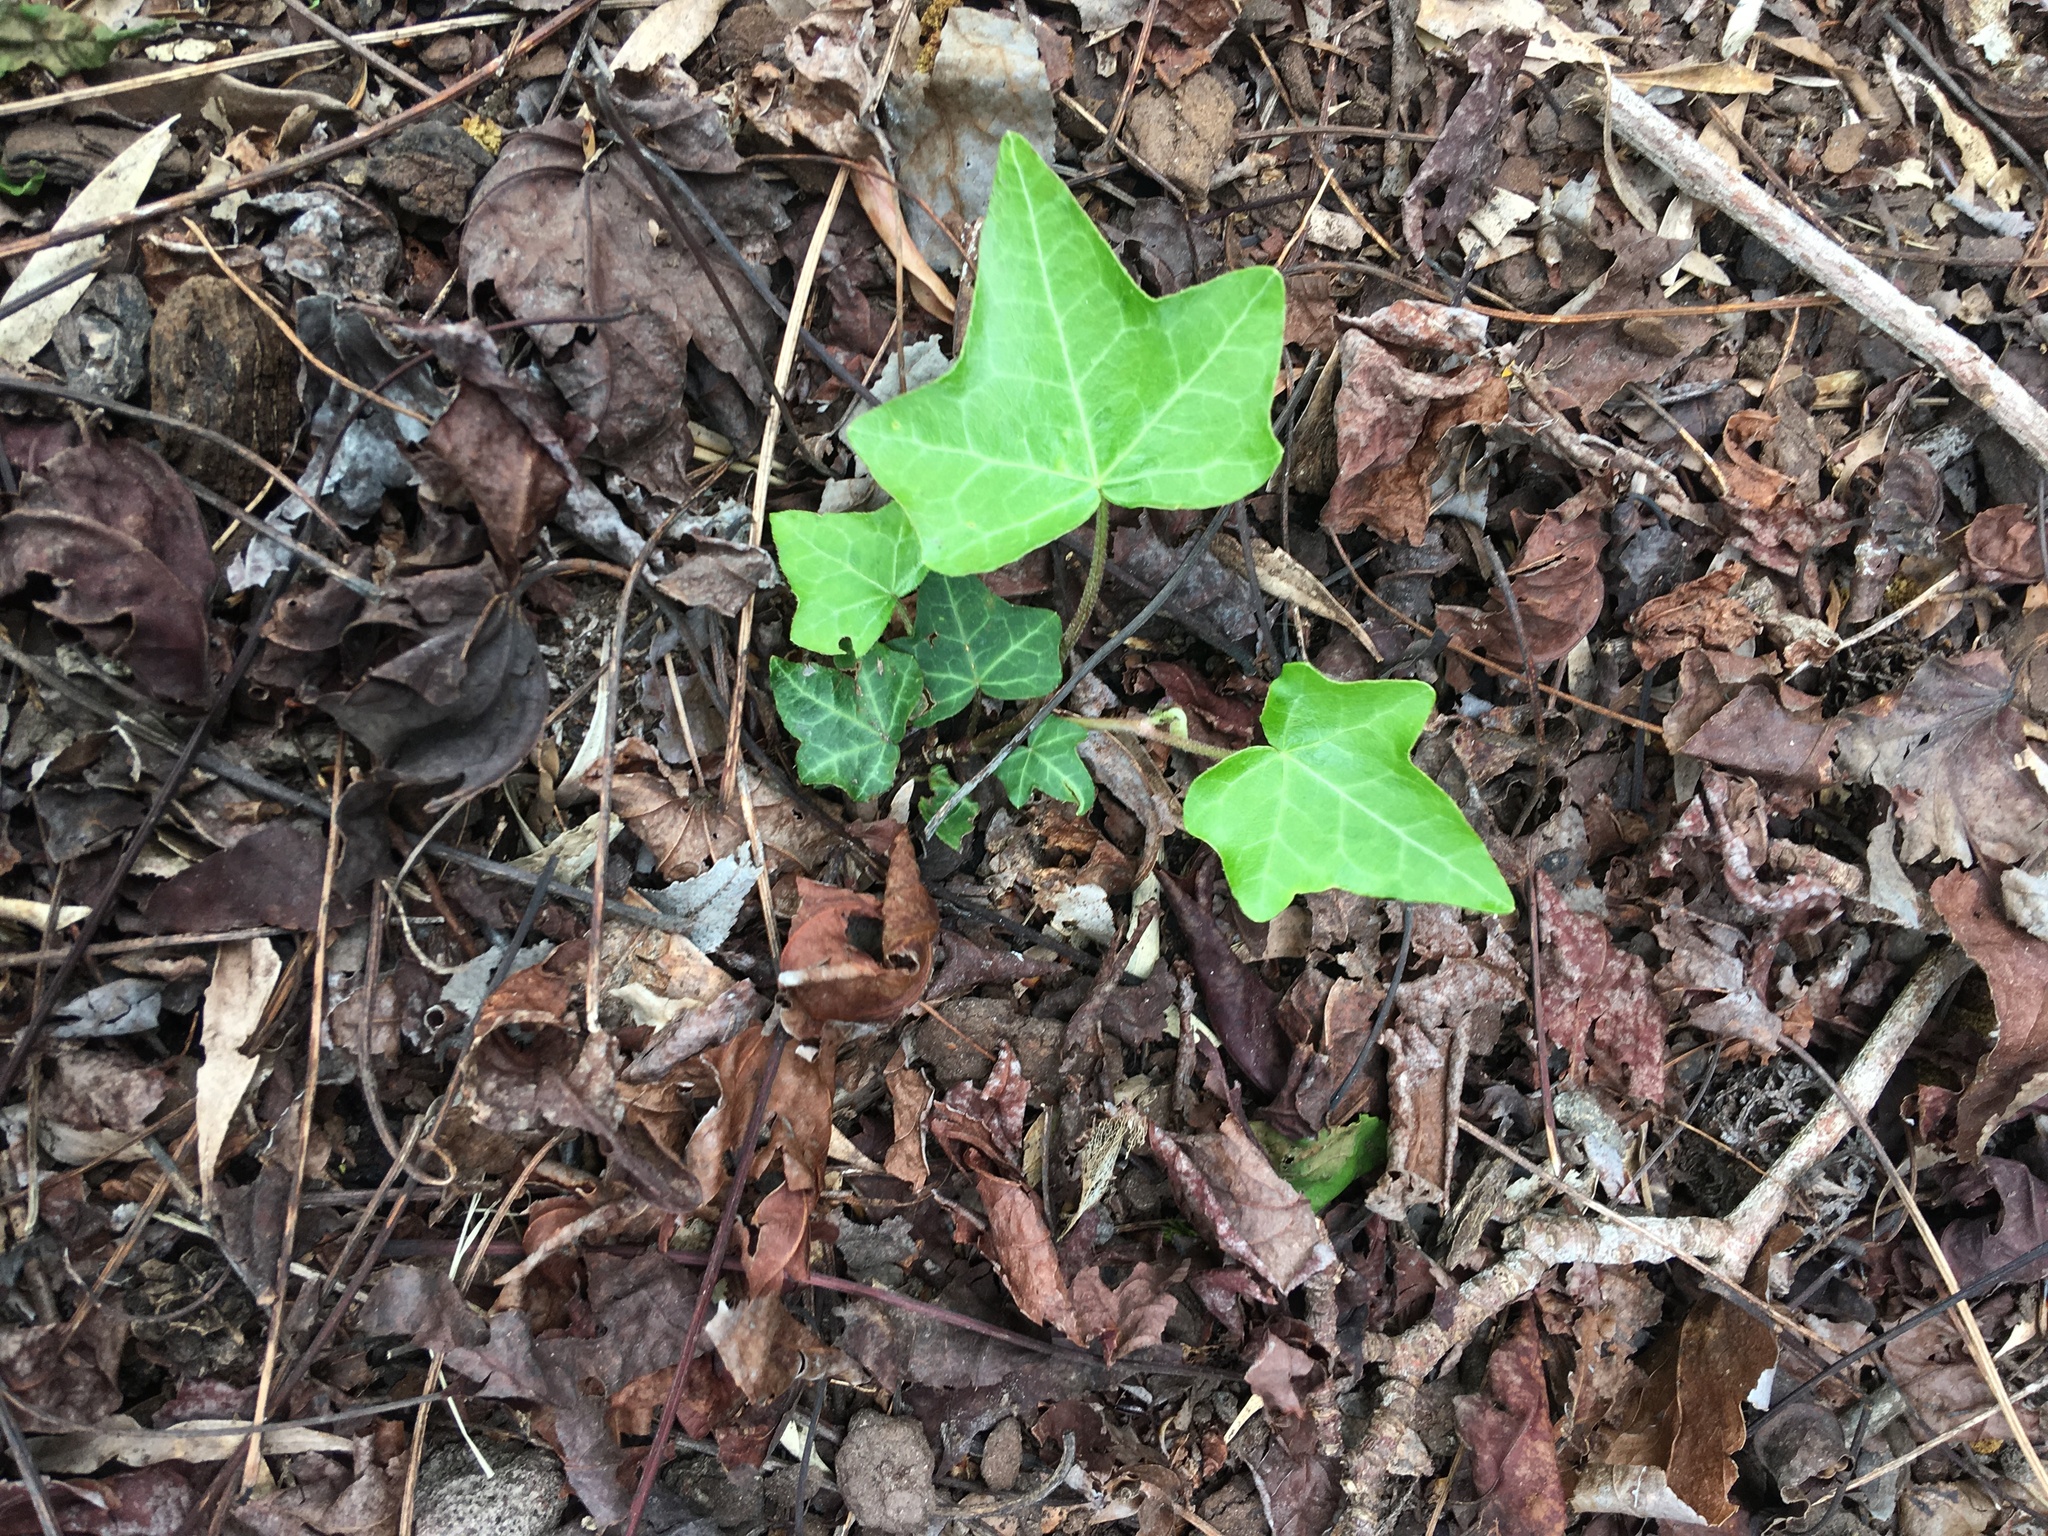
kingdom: Plantae
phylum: Tracheophyta
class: Magnoliopsida
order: Apiales
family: Araliaceae
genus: Hedera
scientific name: Hedera helix
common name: Ivy
